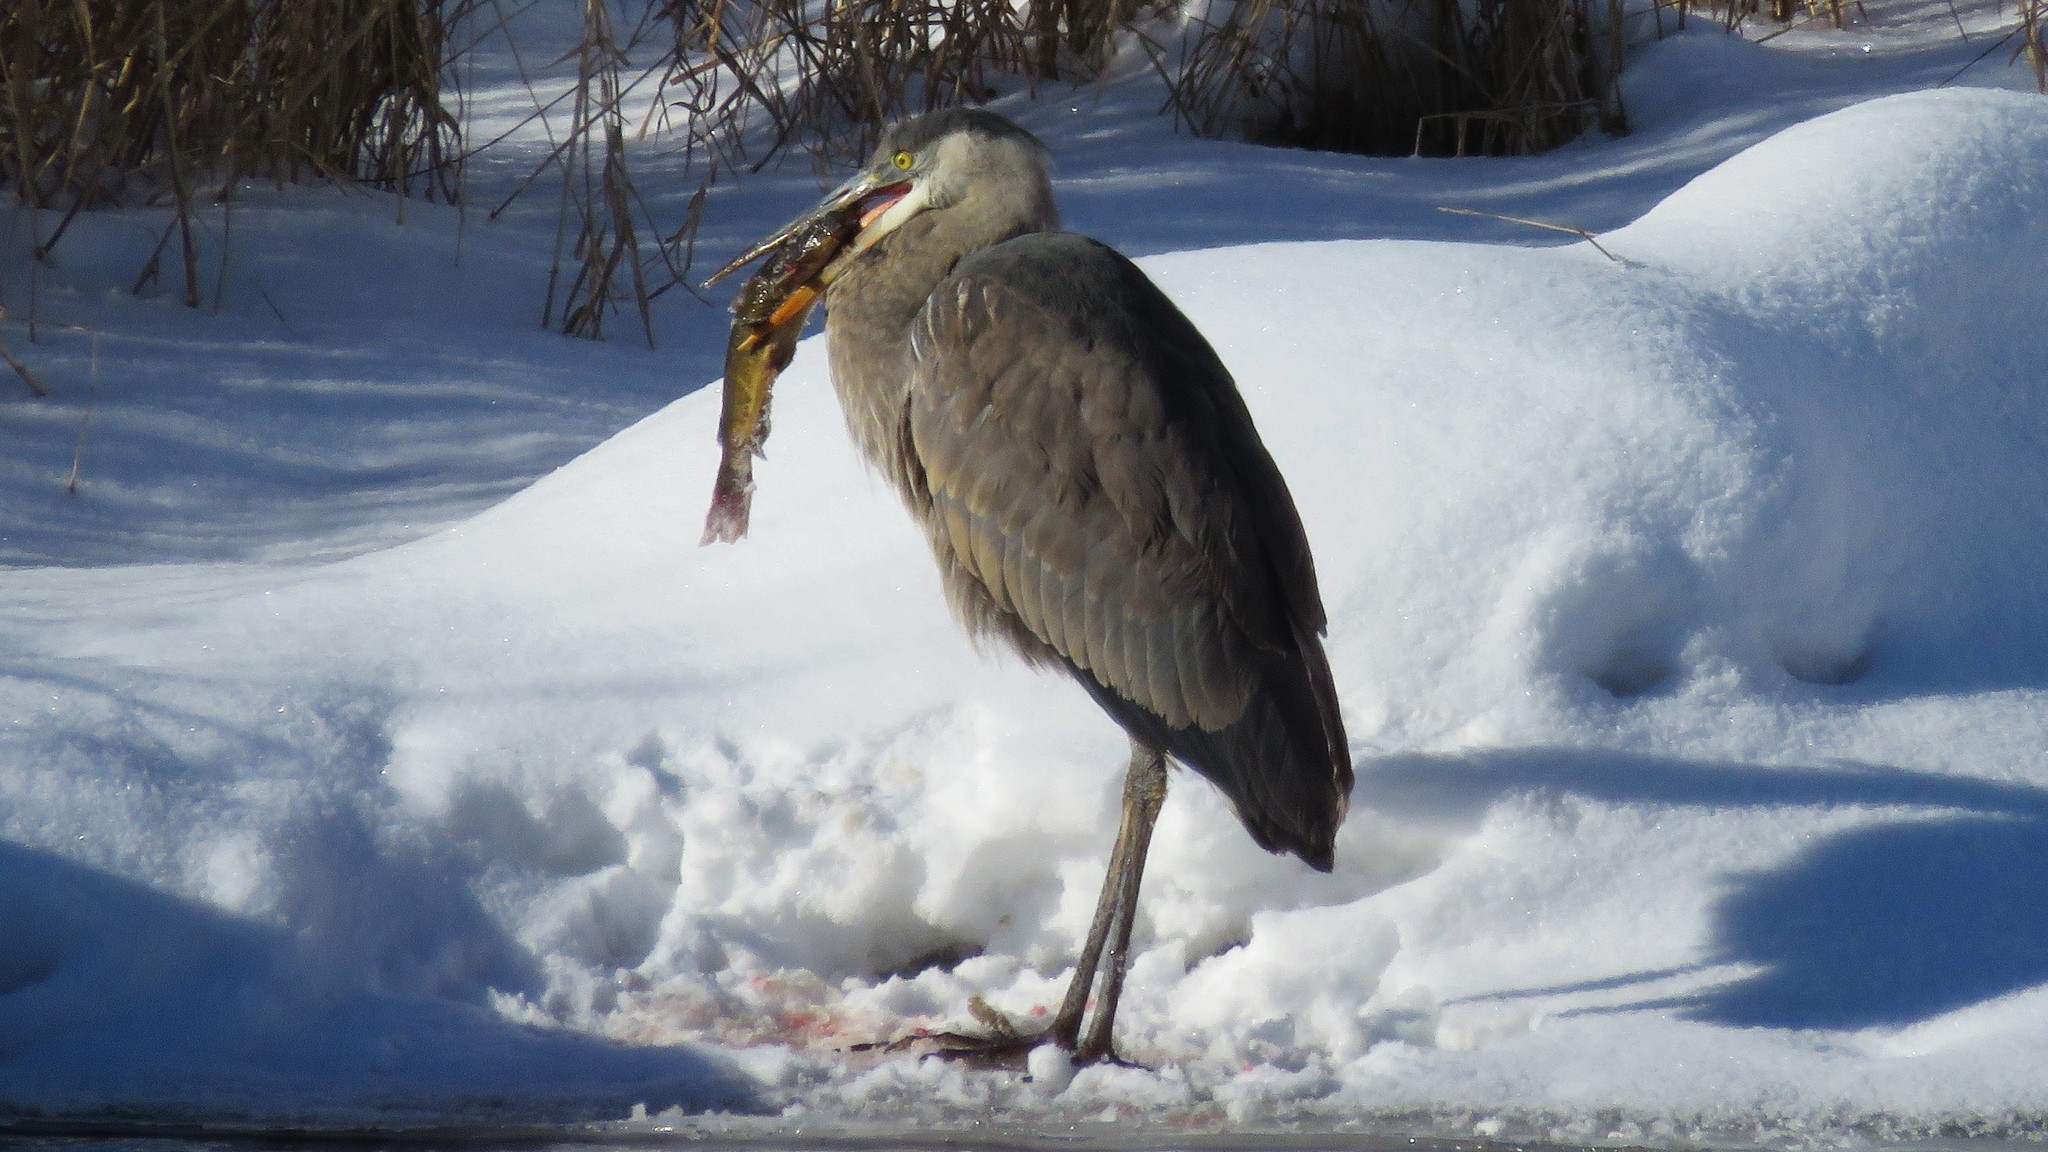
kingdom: Animalia
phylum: Chordata
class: Aves
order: Pelecaniformes
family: Ardeidae
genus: Ardea
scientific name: Ardea herodias
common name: Great blue heron
